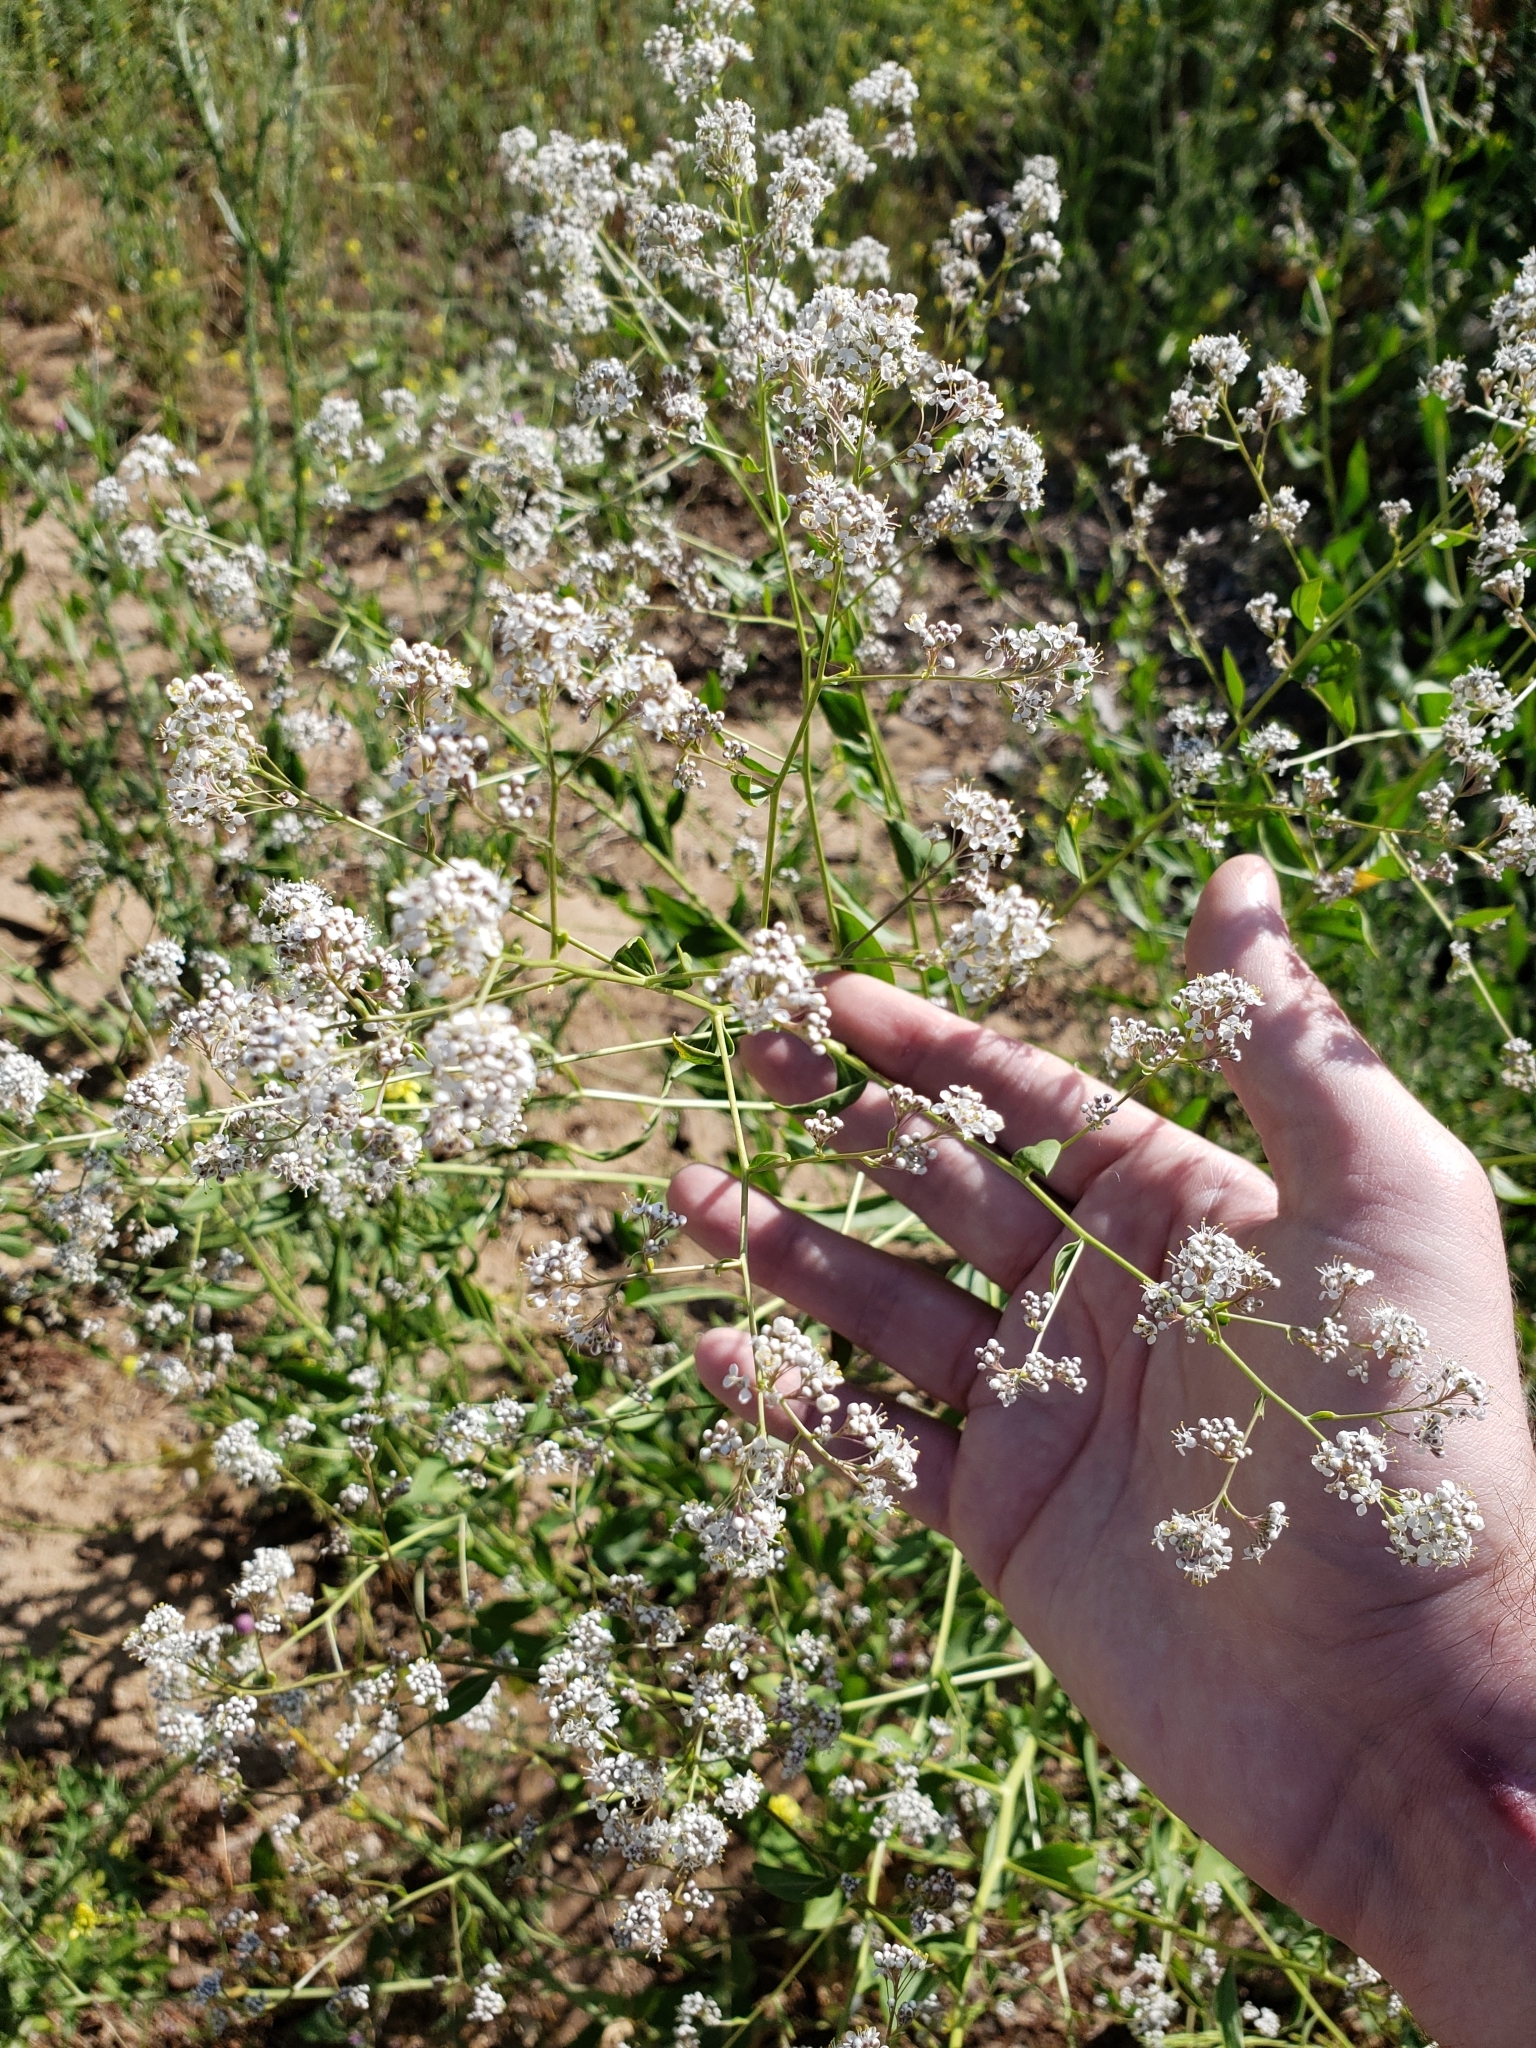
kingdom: Plantae
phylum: Tracheophyta
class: Magnoliopsida
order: Brassicales
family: Brassicaceae
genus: Lepidium
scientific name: Lepidium latifolium
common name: Dittander
